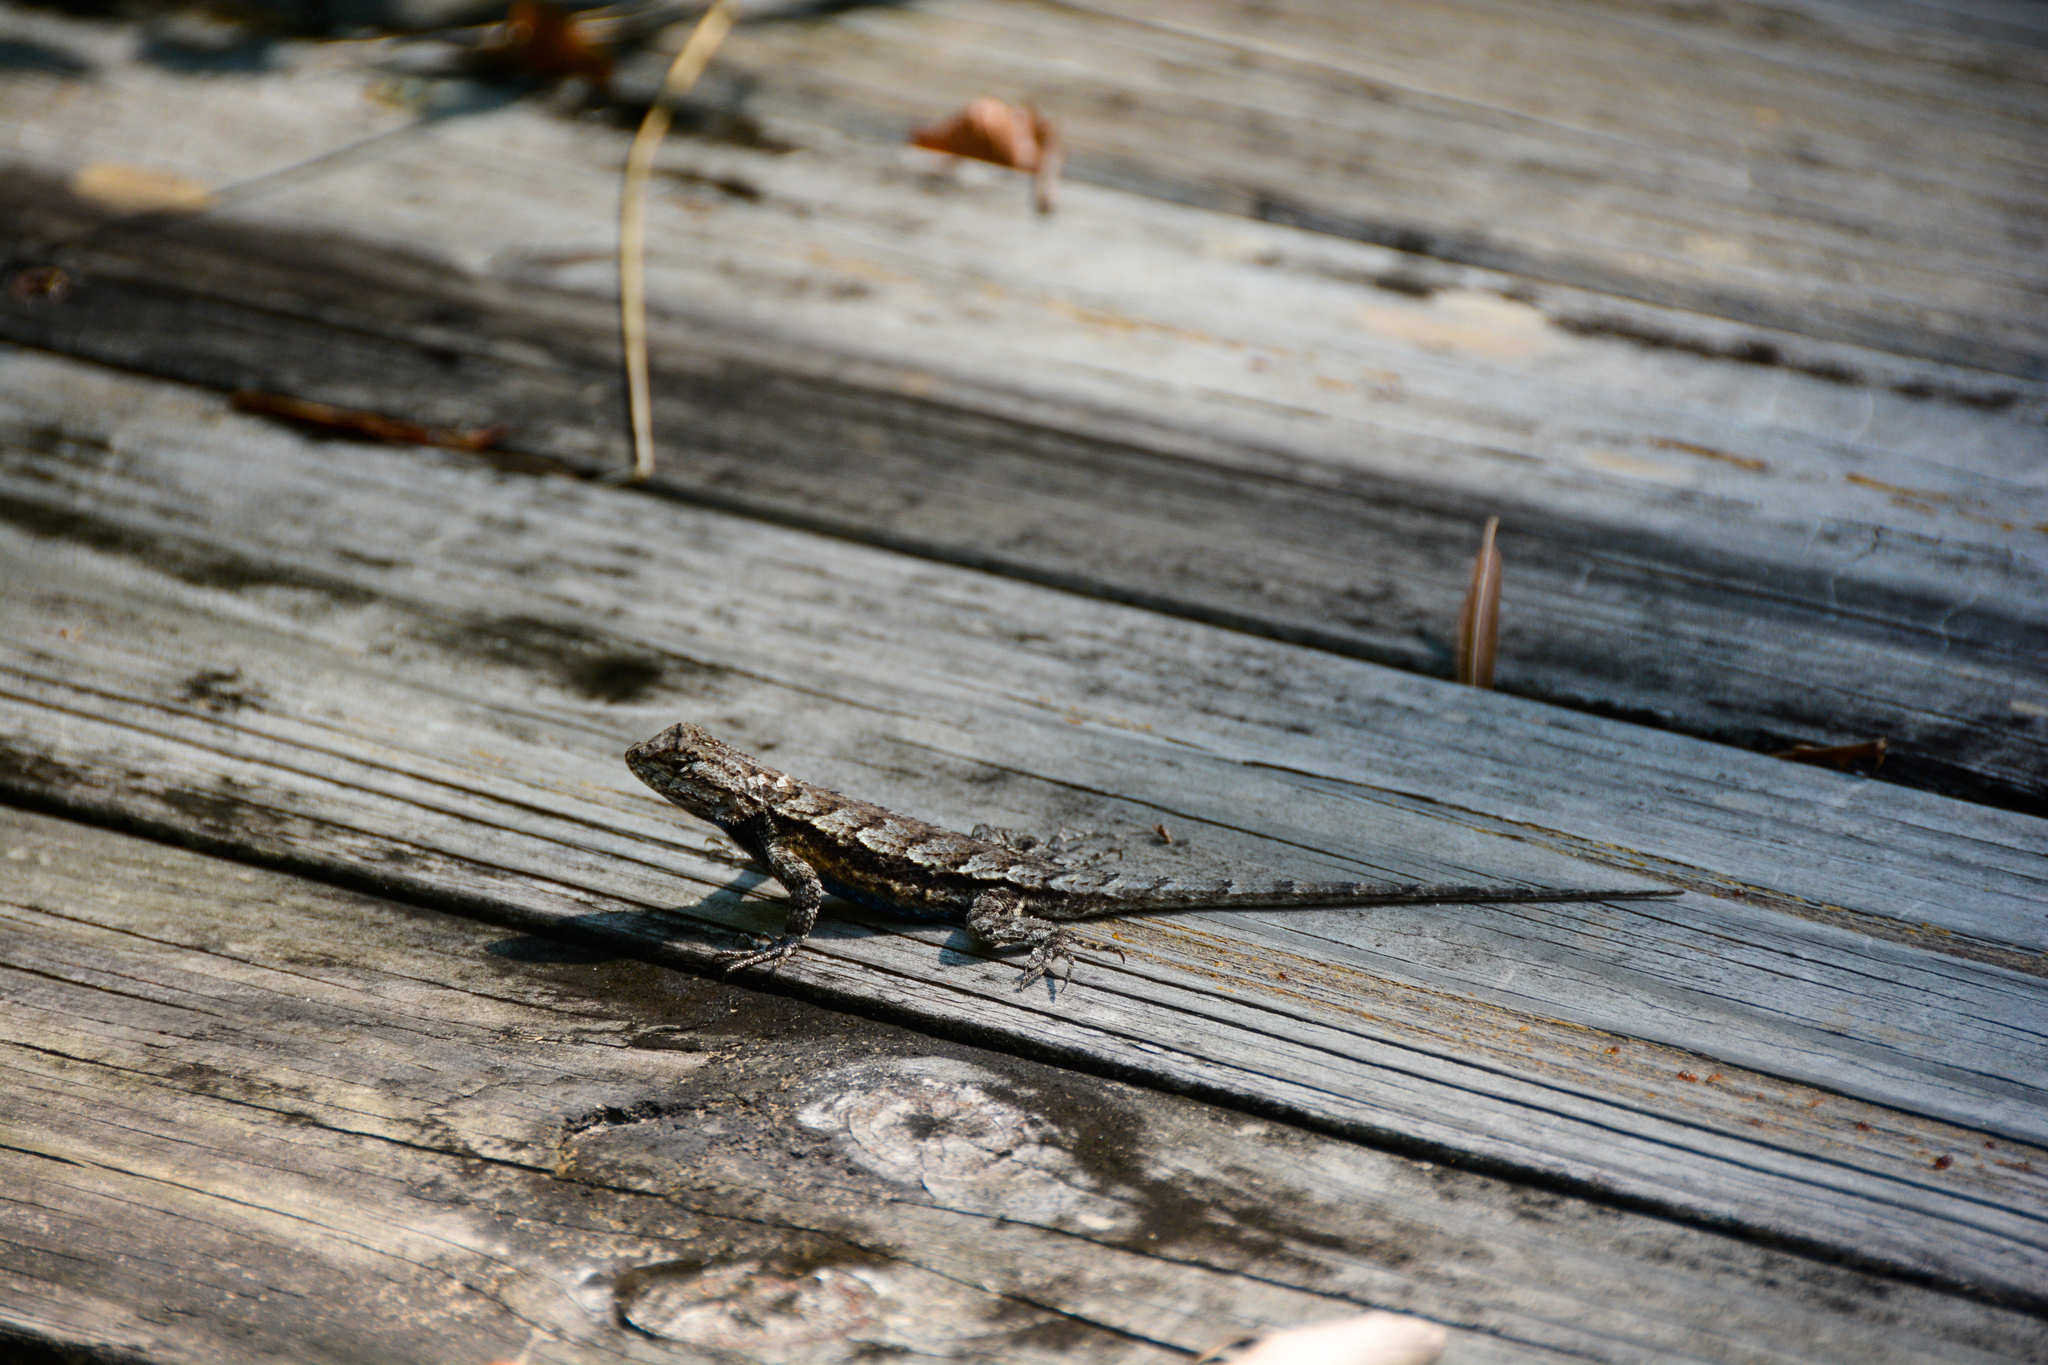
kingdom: Animalia
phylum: Chordata
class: Squamata
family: Phrynosomatidae
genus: Sceloporus
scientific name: Sceloporus consobrinus
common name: Southern prairie lizard
